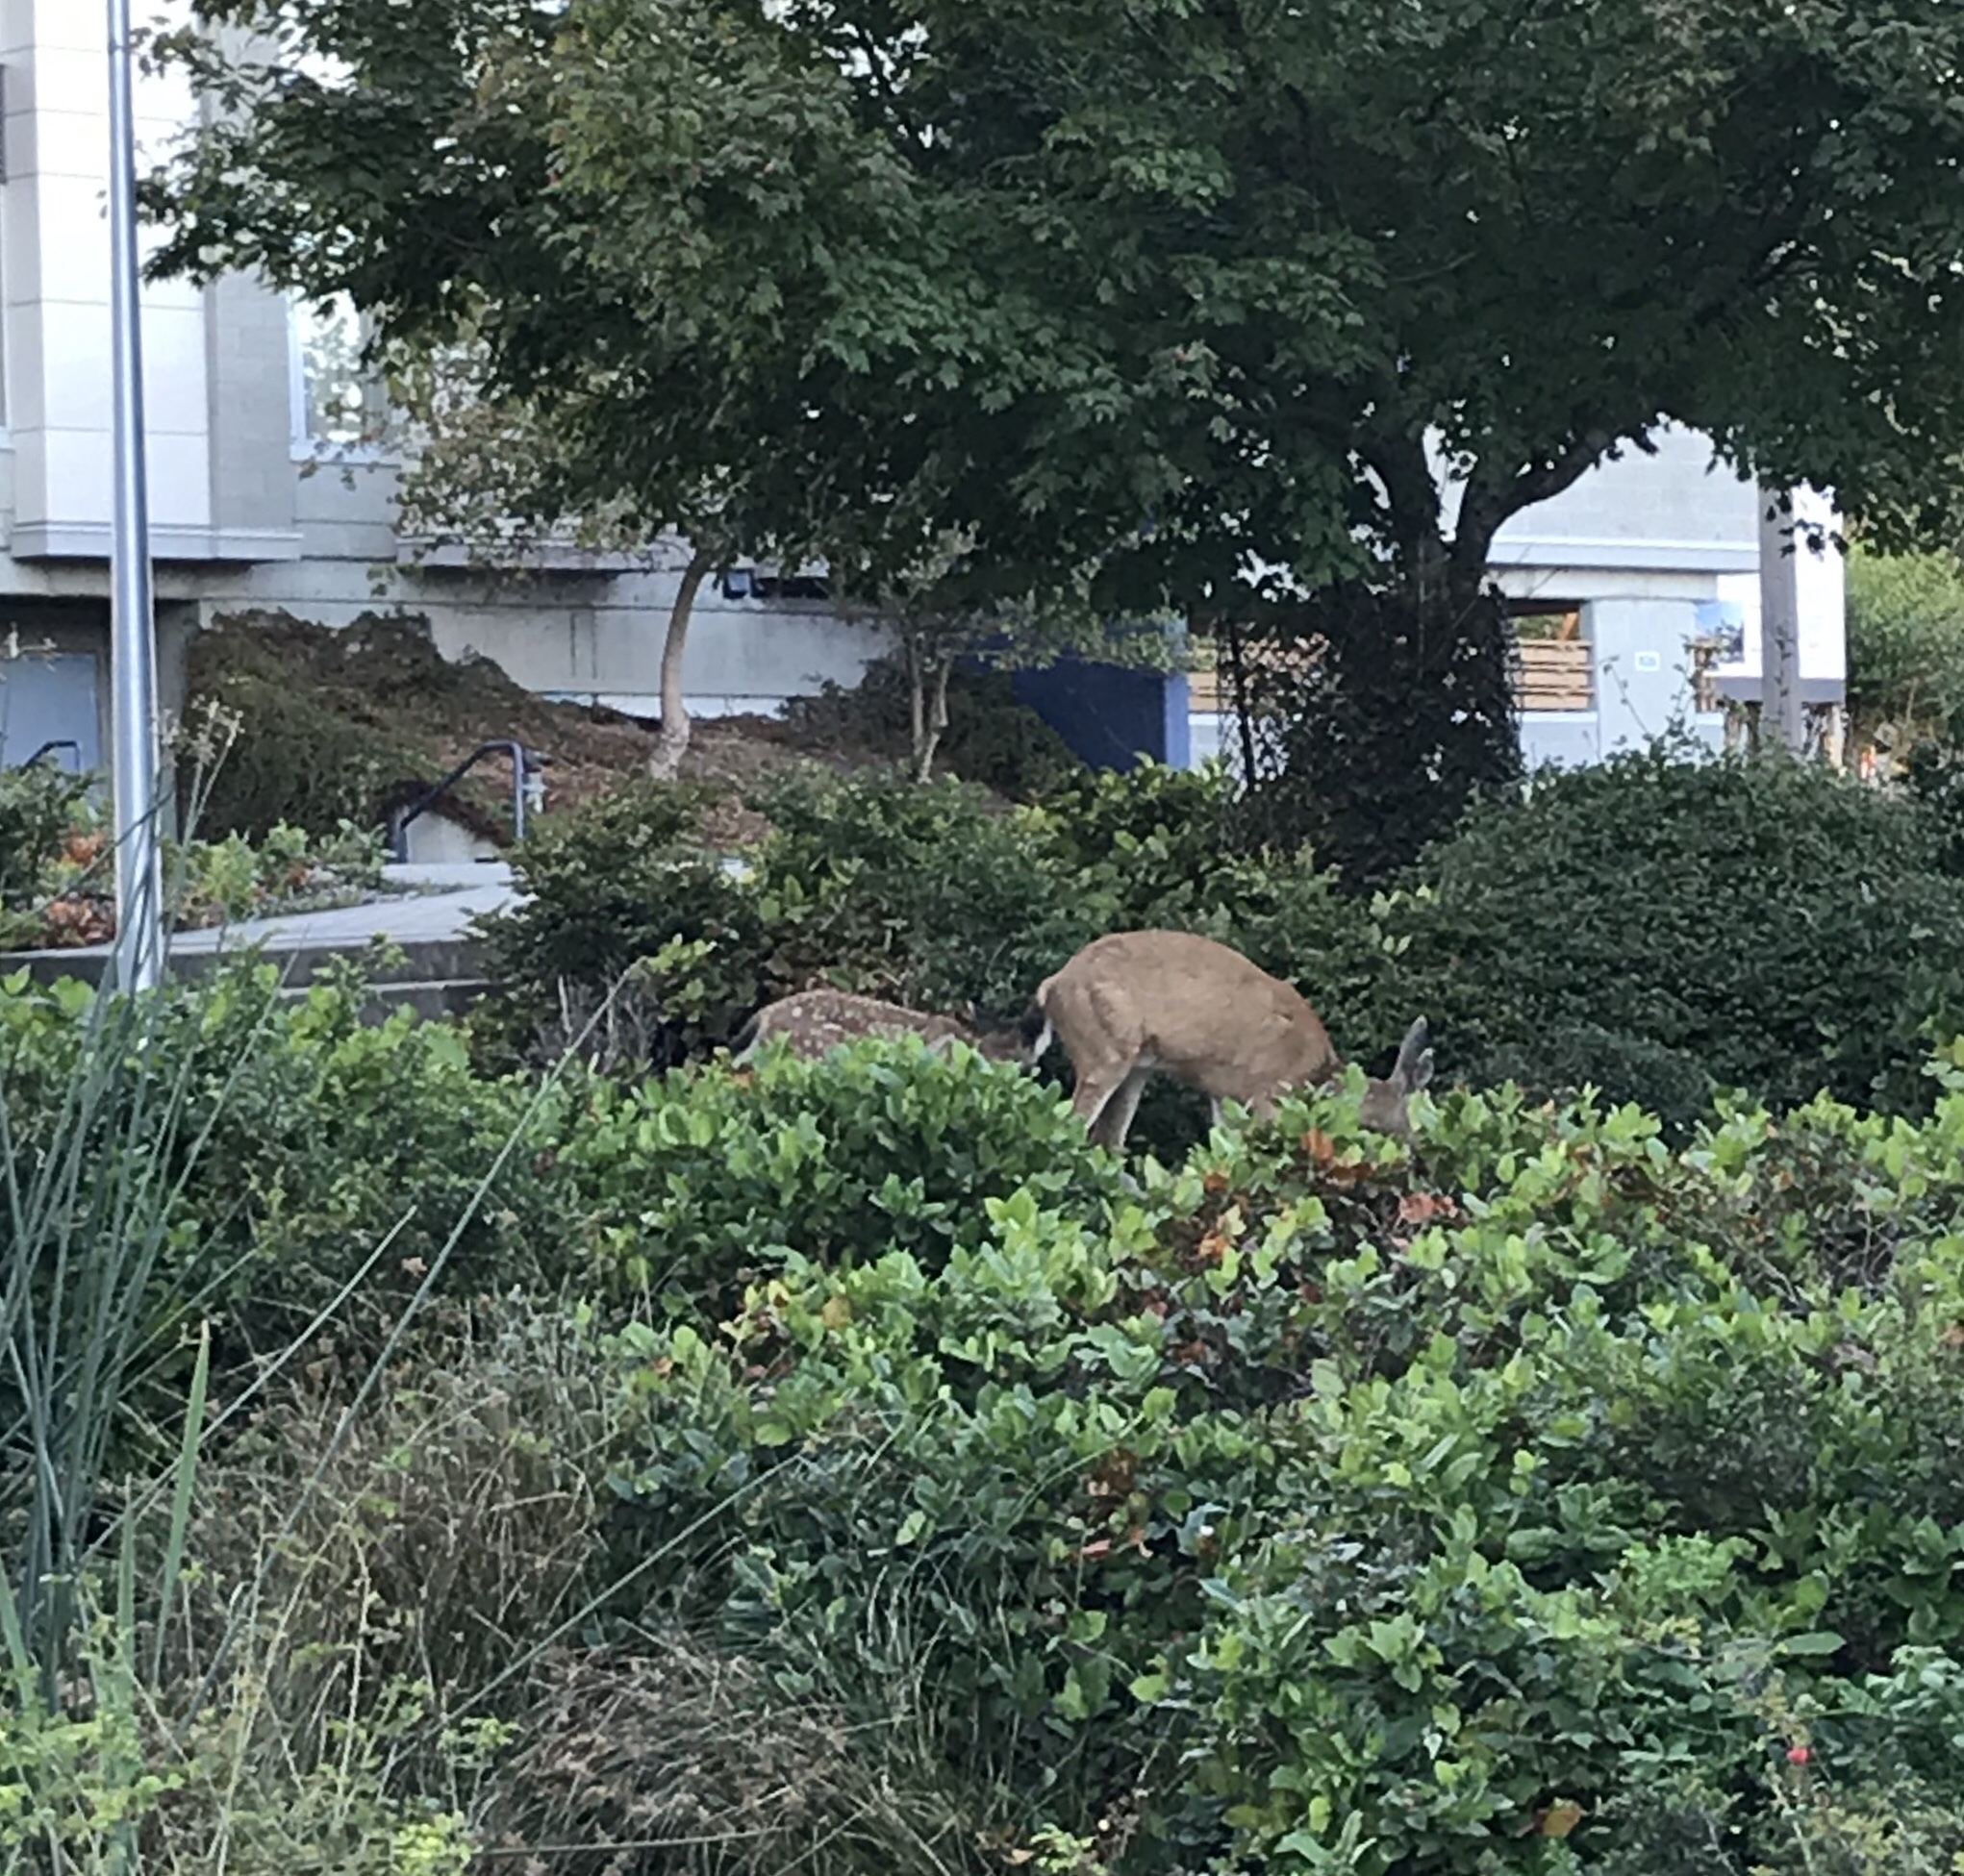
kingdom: Animalia
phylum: Chordata
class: Mammalia
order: Artiodactyla
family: Cervidae
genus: Odocoileus
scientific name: Odocoileus hemionus
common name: Mule deer
